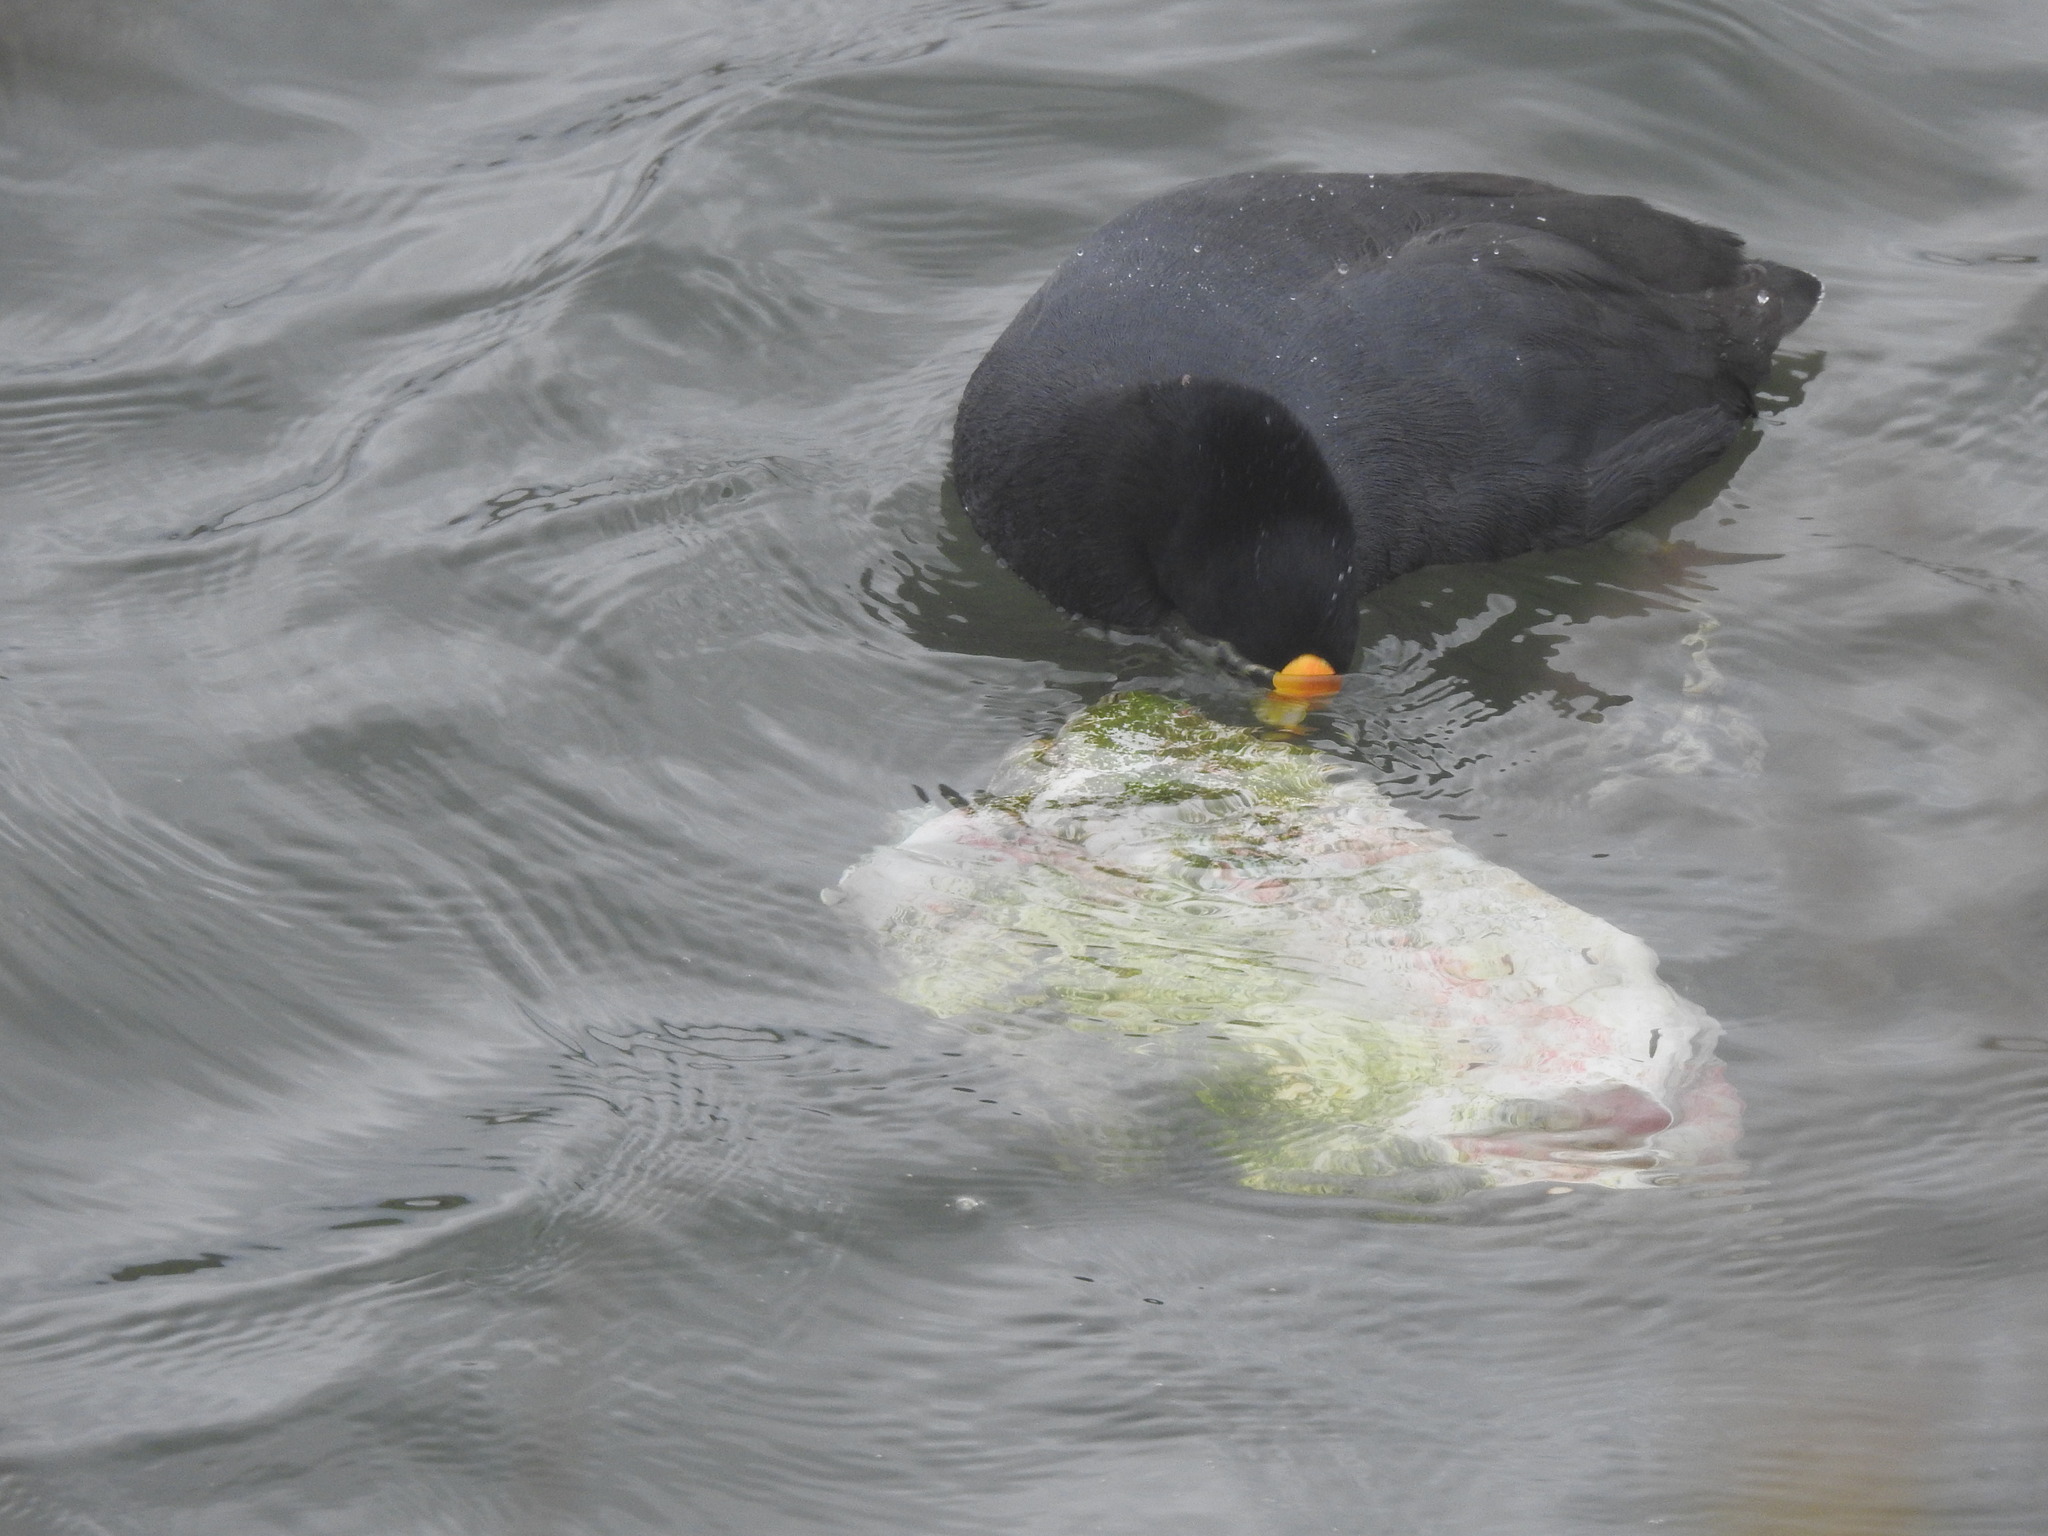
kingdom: Animalia
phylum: Chordata
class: Aves
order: Gruiformes
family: Rallidae
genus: Fulica
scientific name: Fulica leucoptera
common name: White-winged coot
